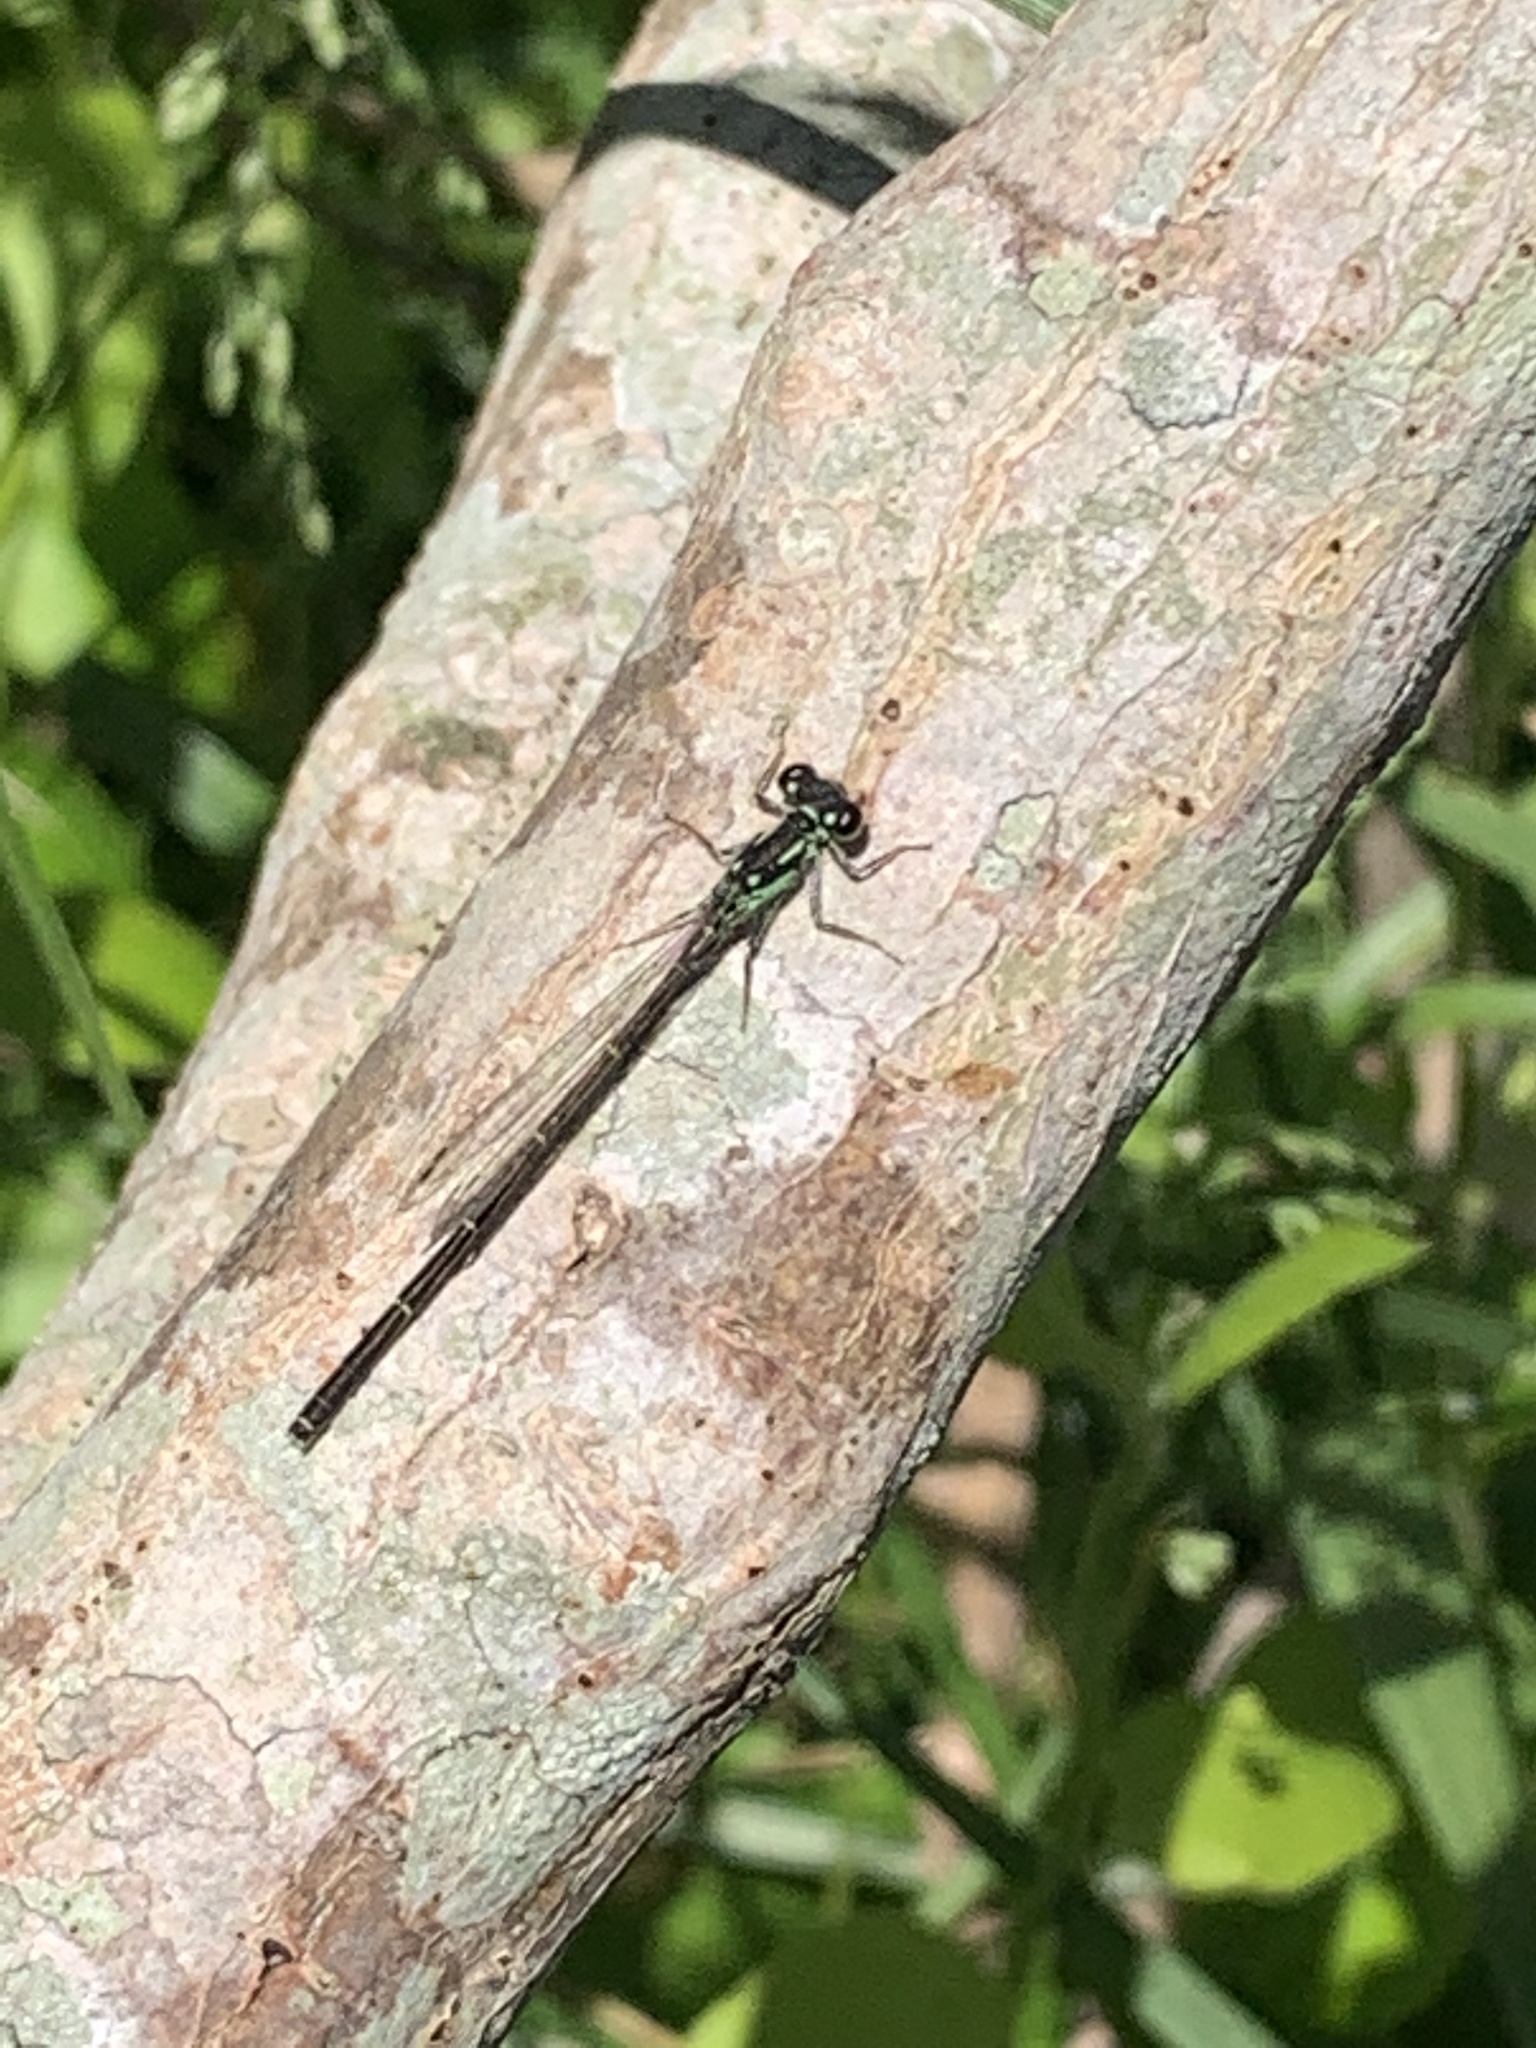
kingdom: Animalia
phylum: Arthropoda
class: Insecta
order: Odonata
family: Coenagrionidae
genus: Ischnura
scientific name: Ischnura posita
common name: Fragile forktail
